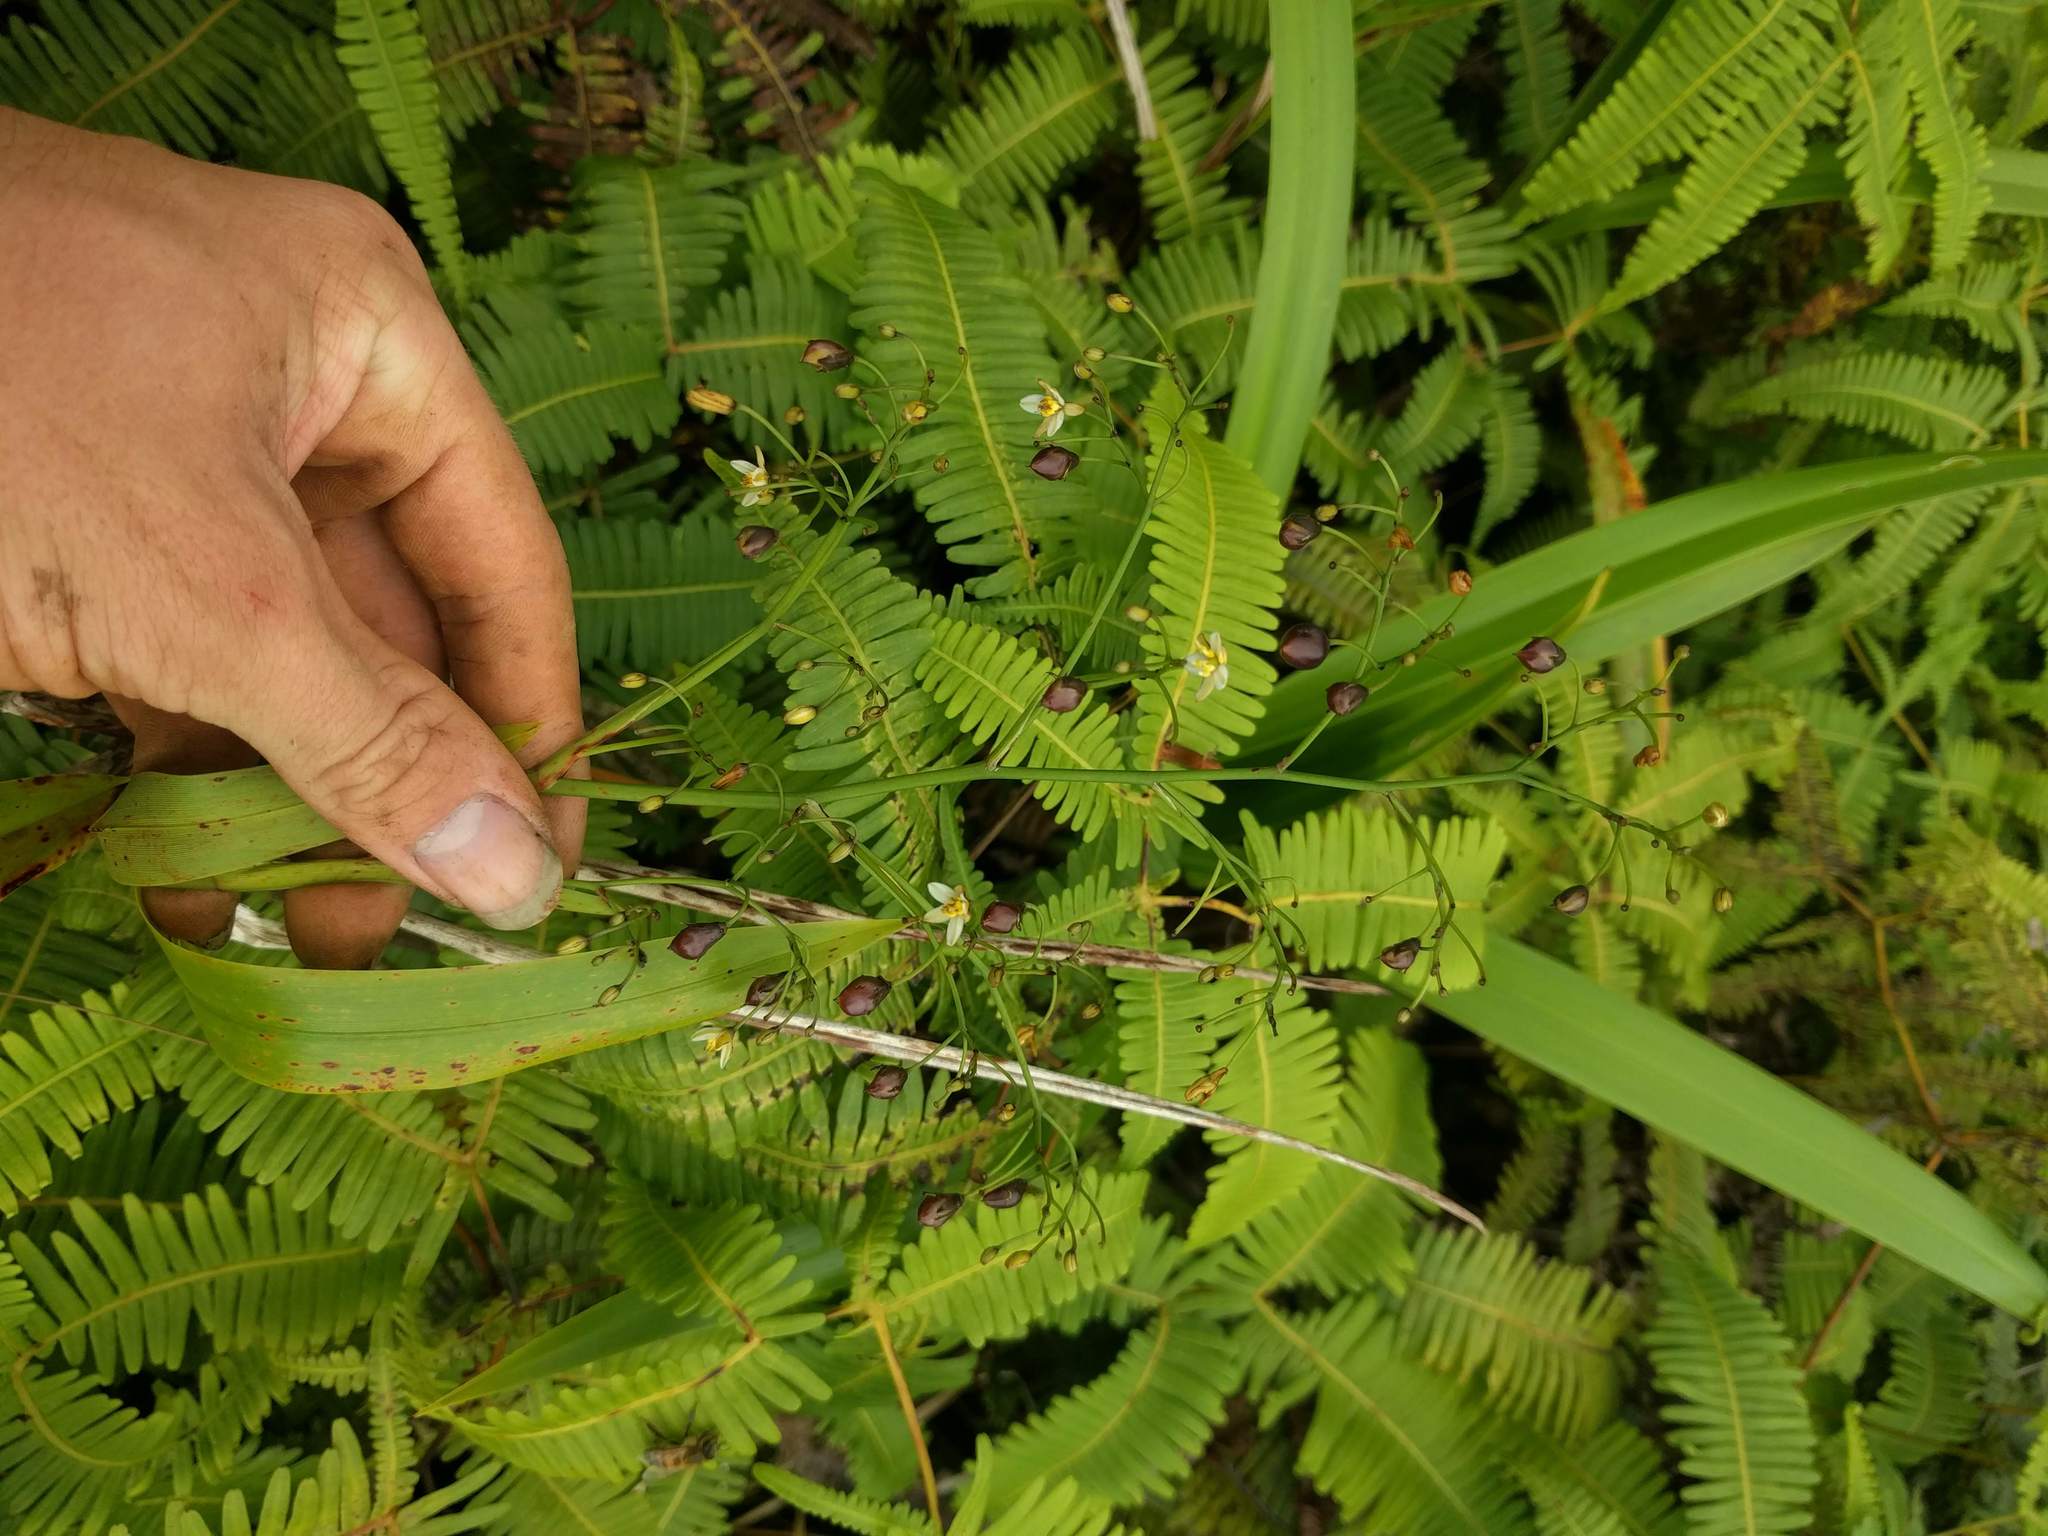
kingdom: Plantae
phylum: Tracheophyta
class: Liliopsida
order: Asparagales
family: Asphodelaceae
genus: Dianella
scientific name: Dianella sandwicensis
